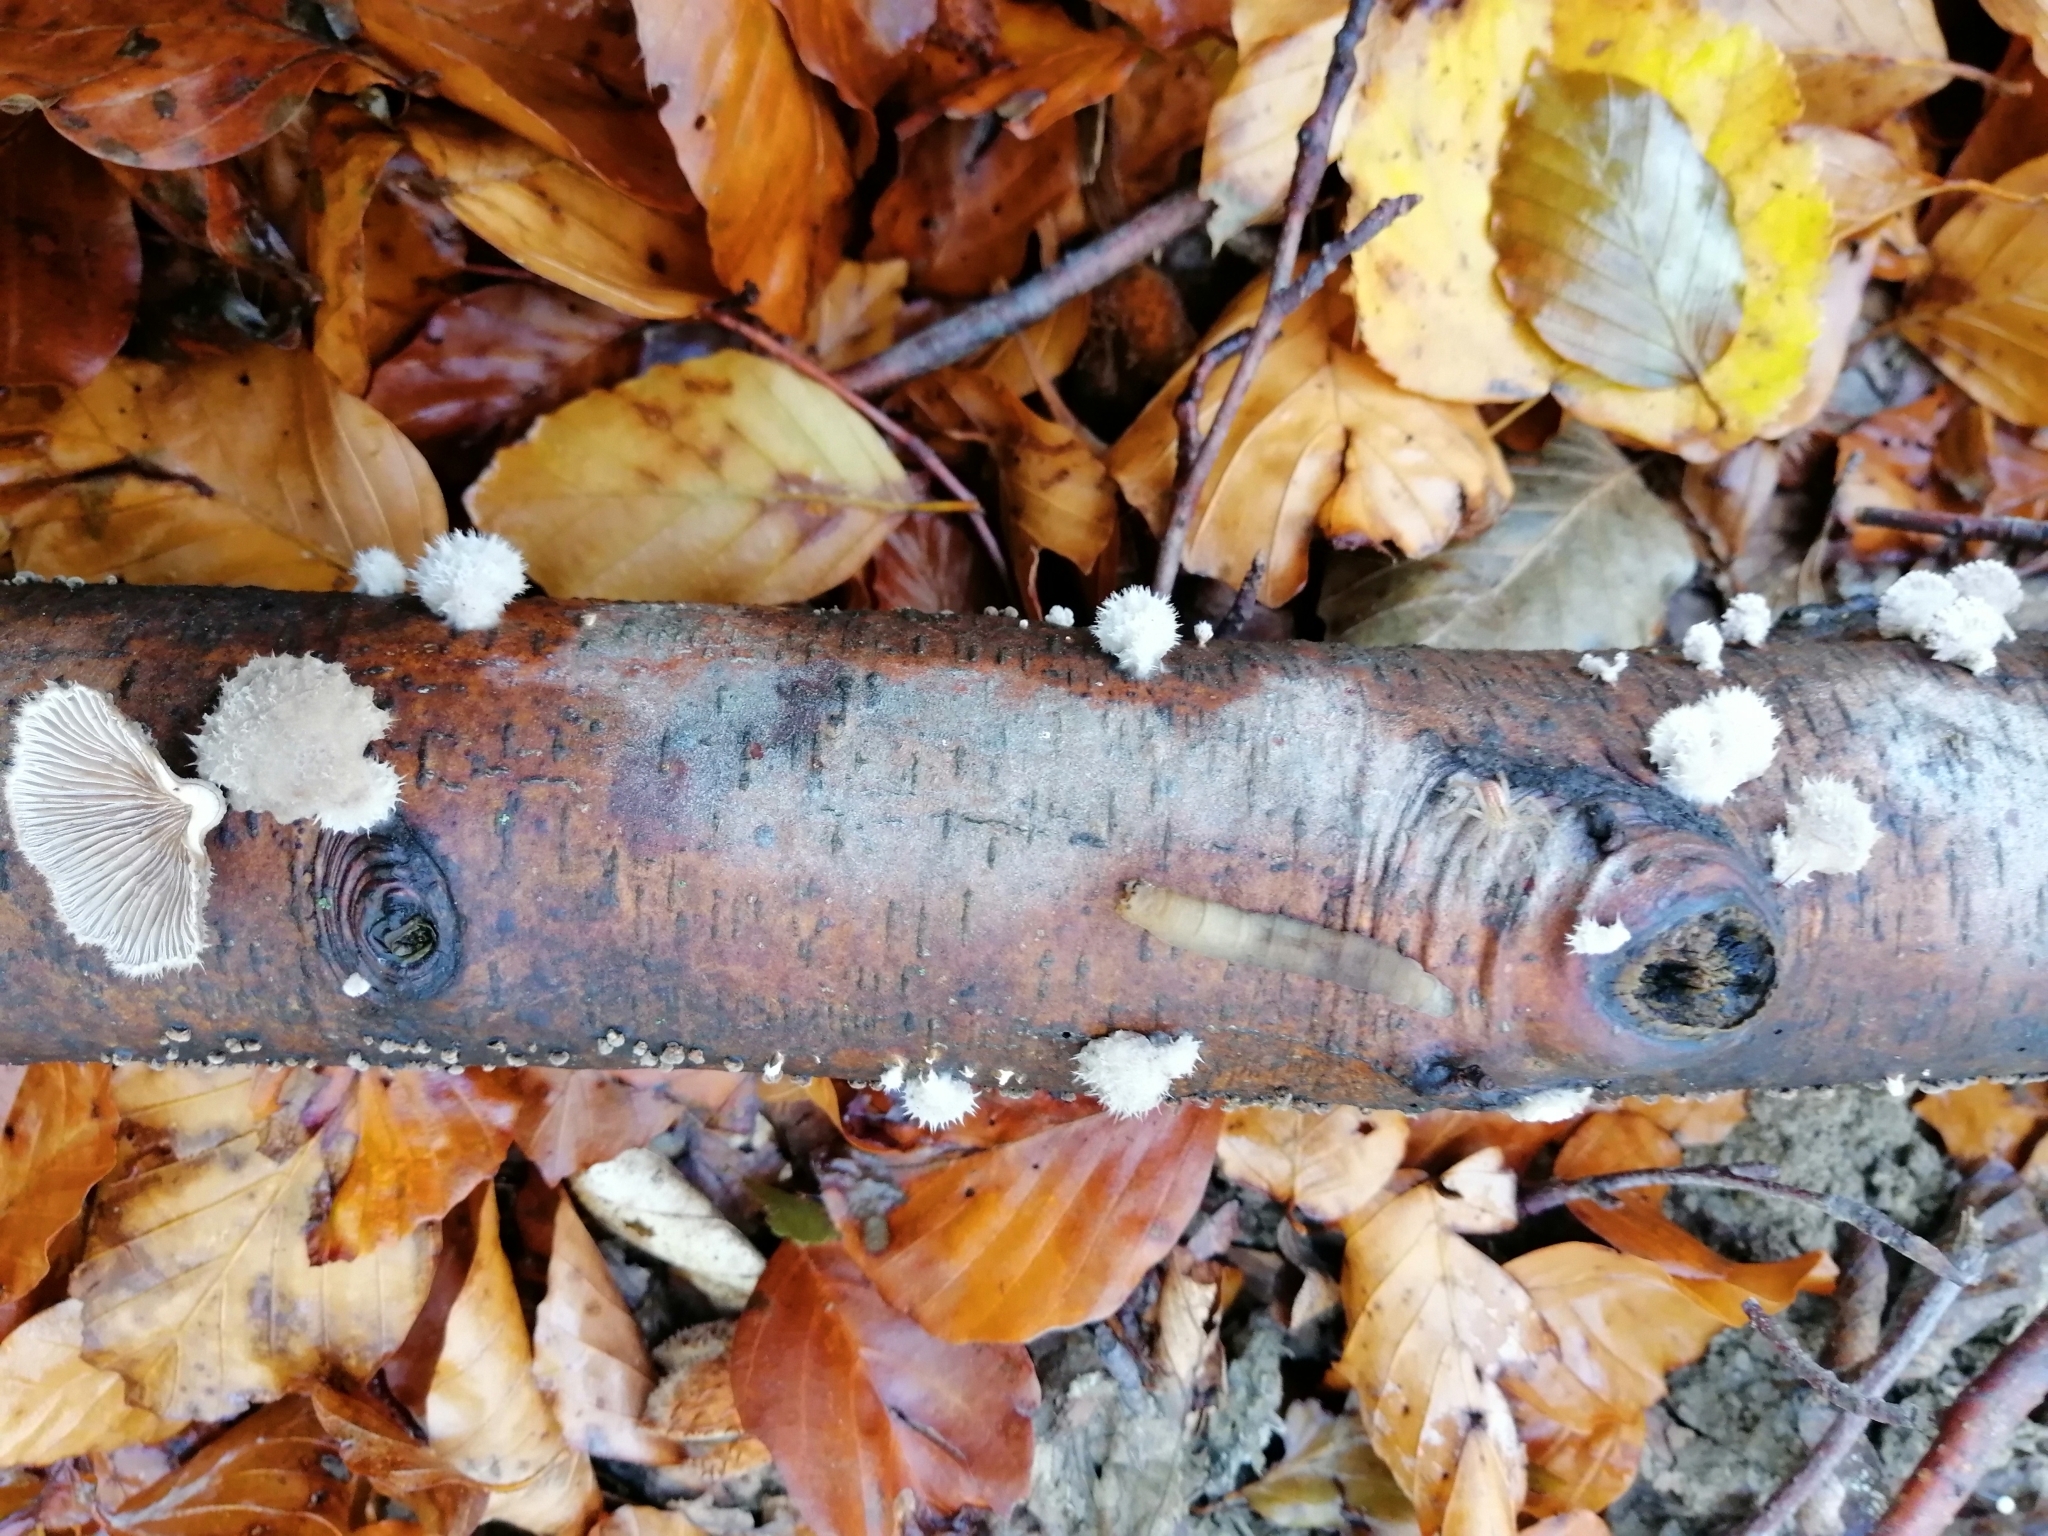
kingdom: Fungi
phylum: Basidiomycota
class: Agaricomycetes
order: Agaricales
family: Schizophyllaceae
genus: Schizophyllum
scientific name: Schizophyllum commune
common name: Common porecrust
